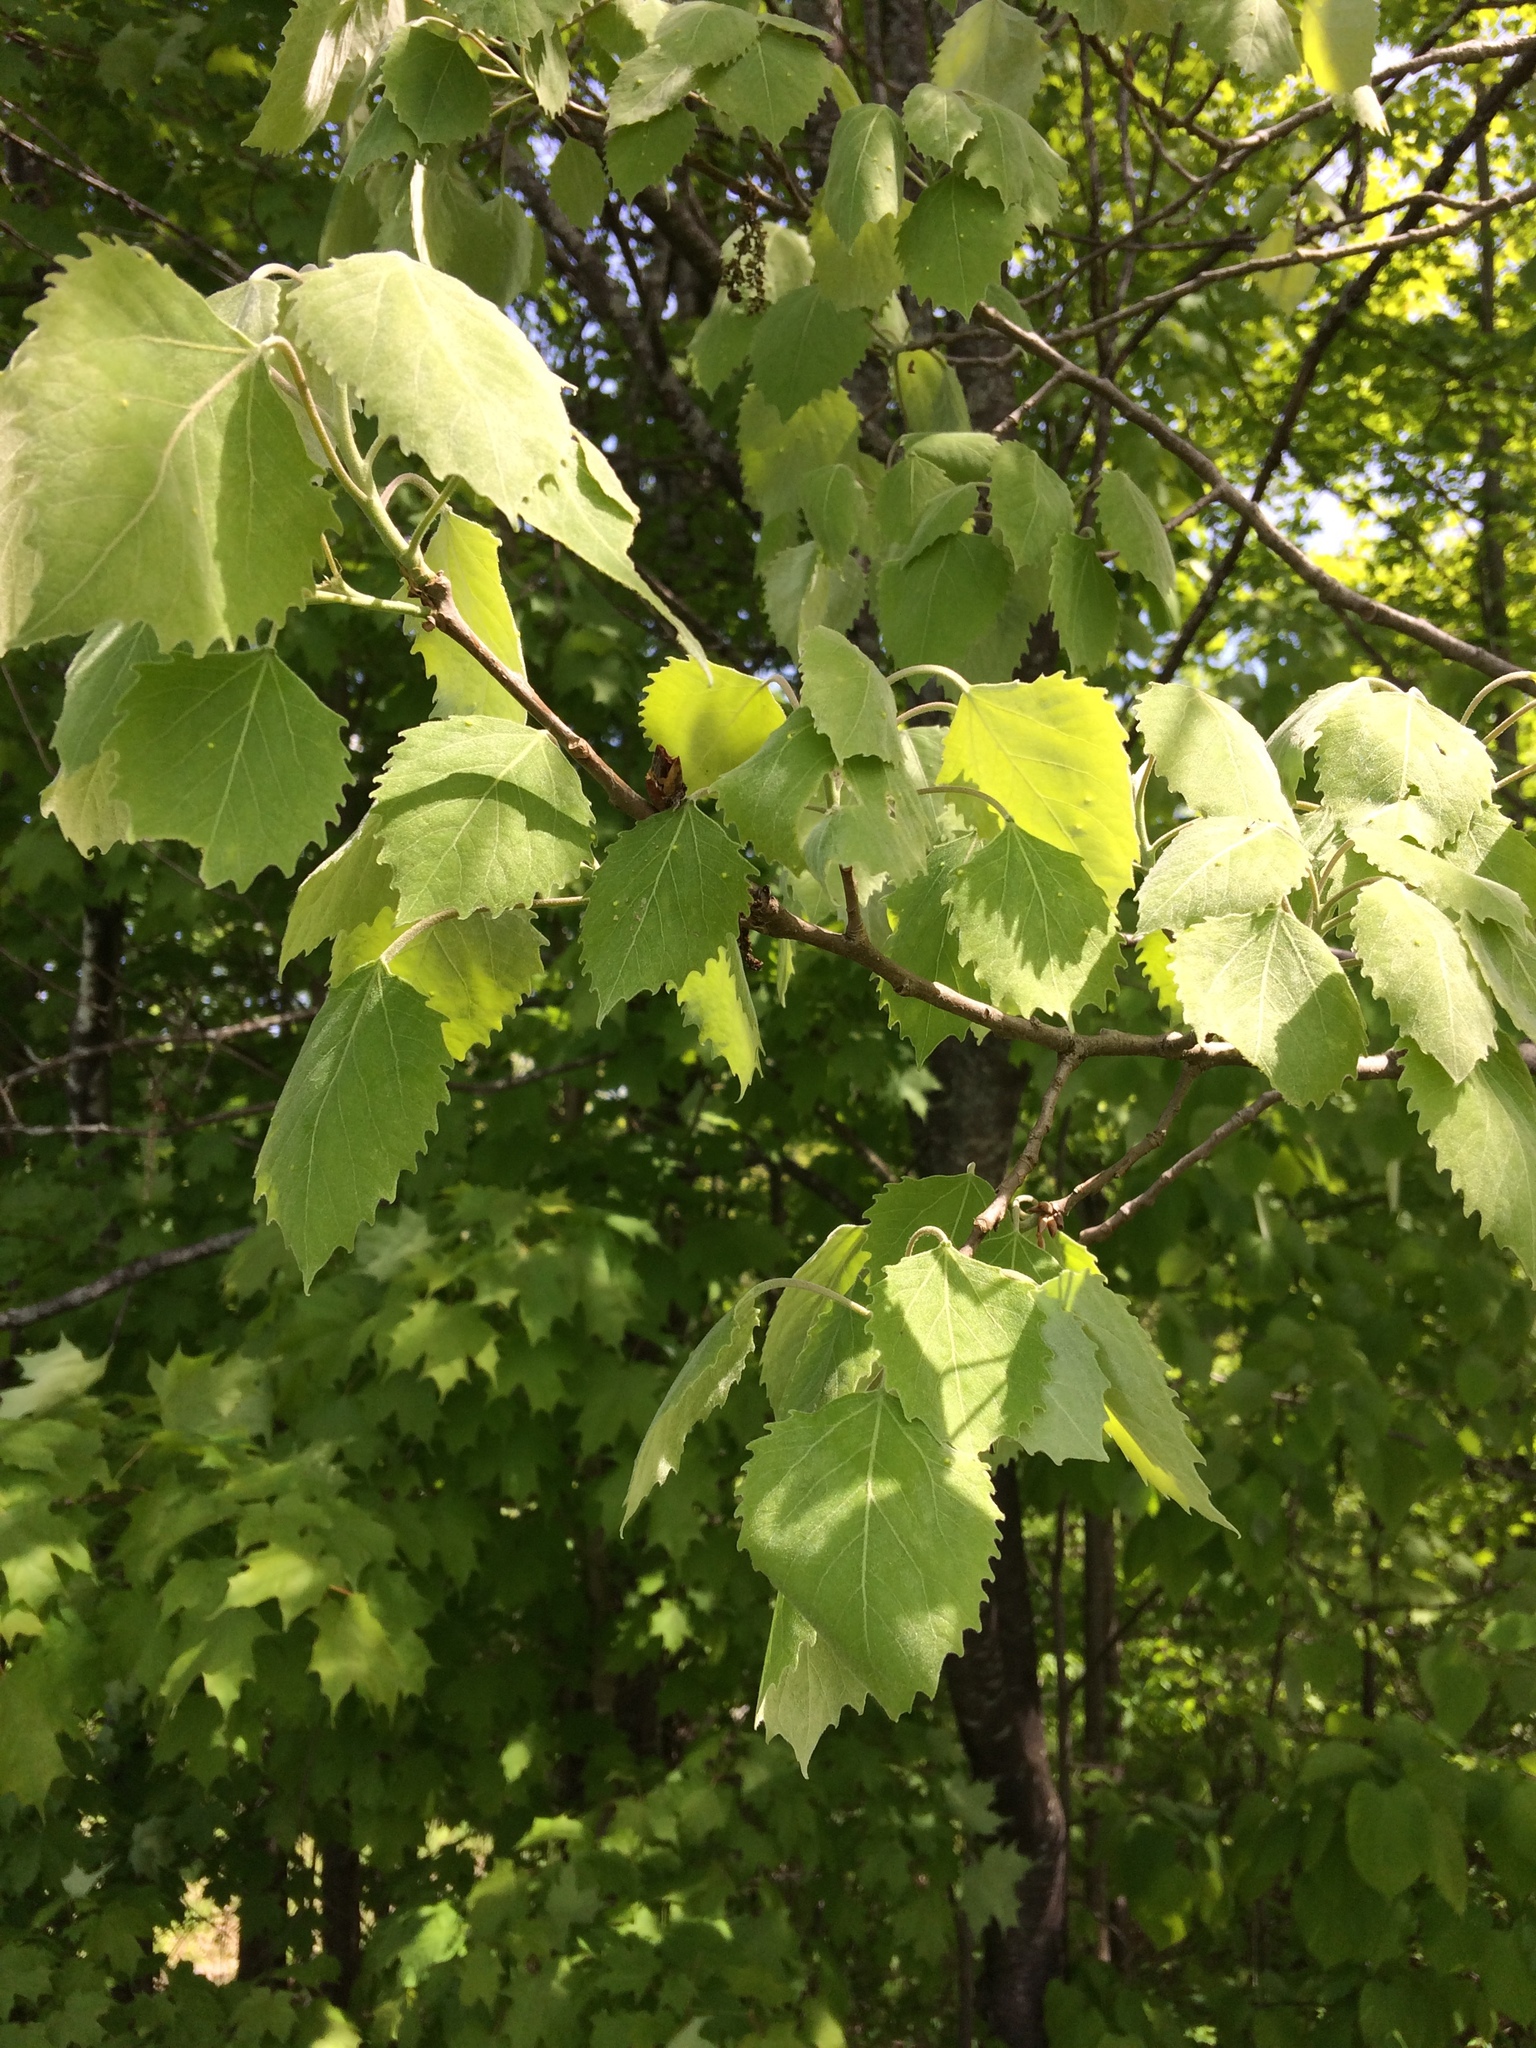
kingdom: Plantae
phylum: Tracheophyta
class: Magnoliopsida
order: Malpighiales
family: Salicaceae
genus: Populus
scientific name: Populus grandidentata
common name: Bigtooth aspen
